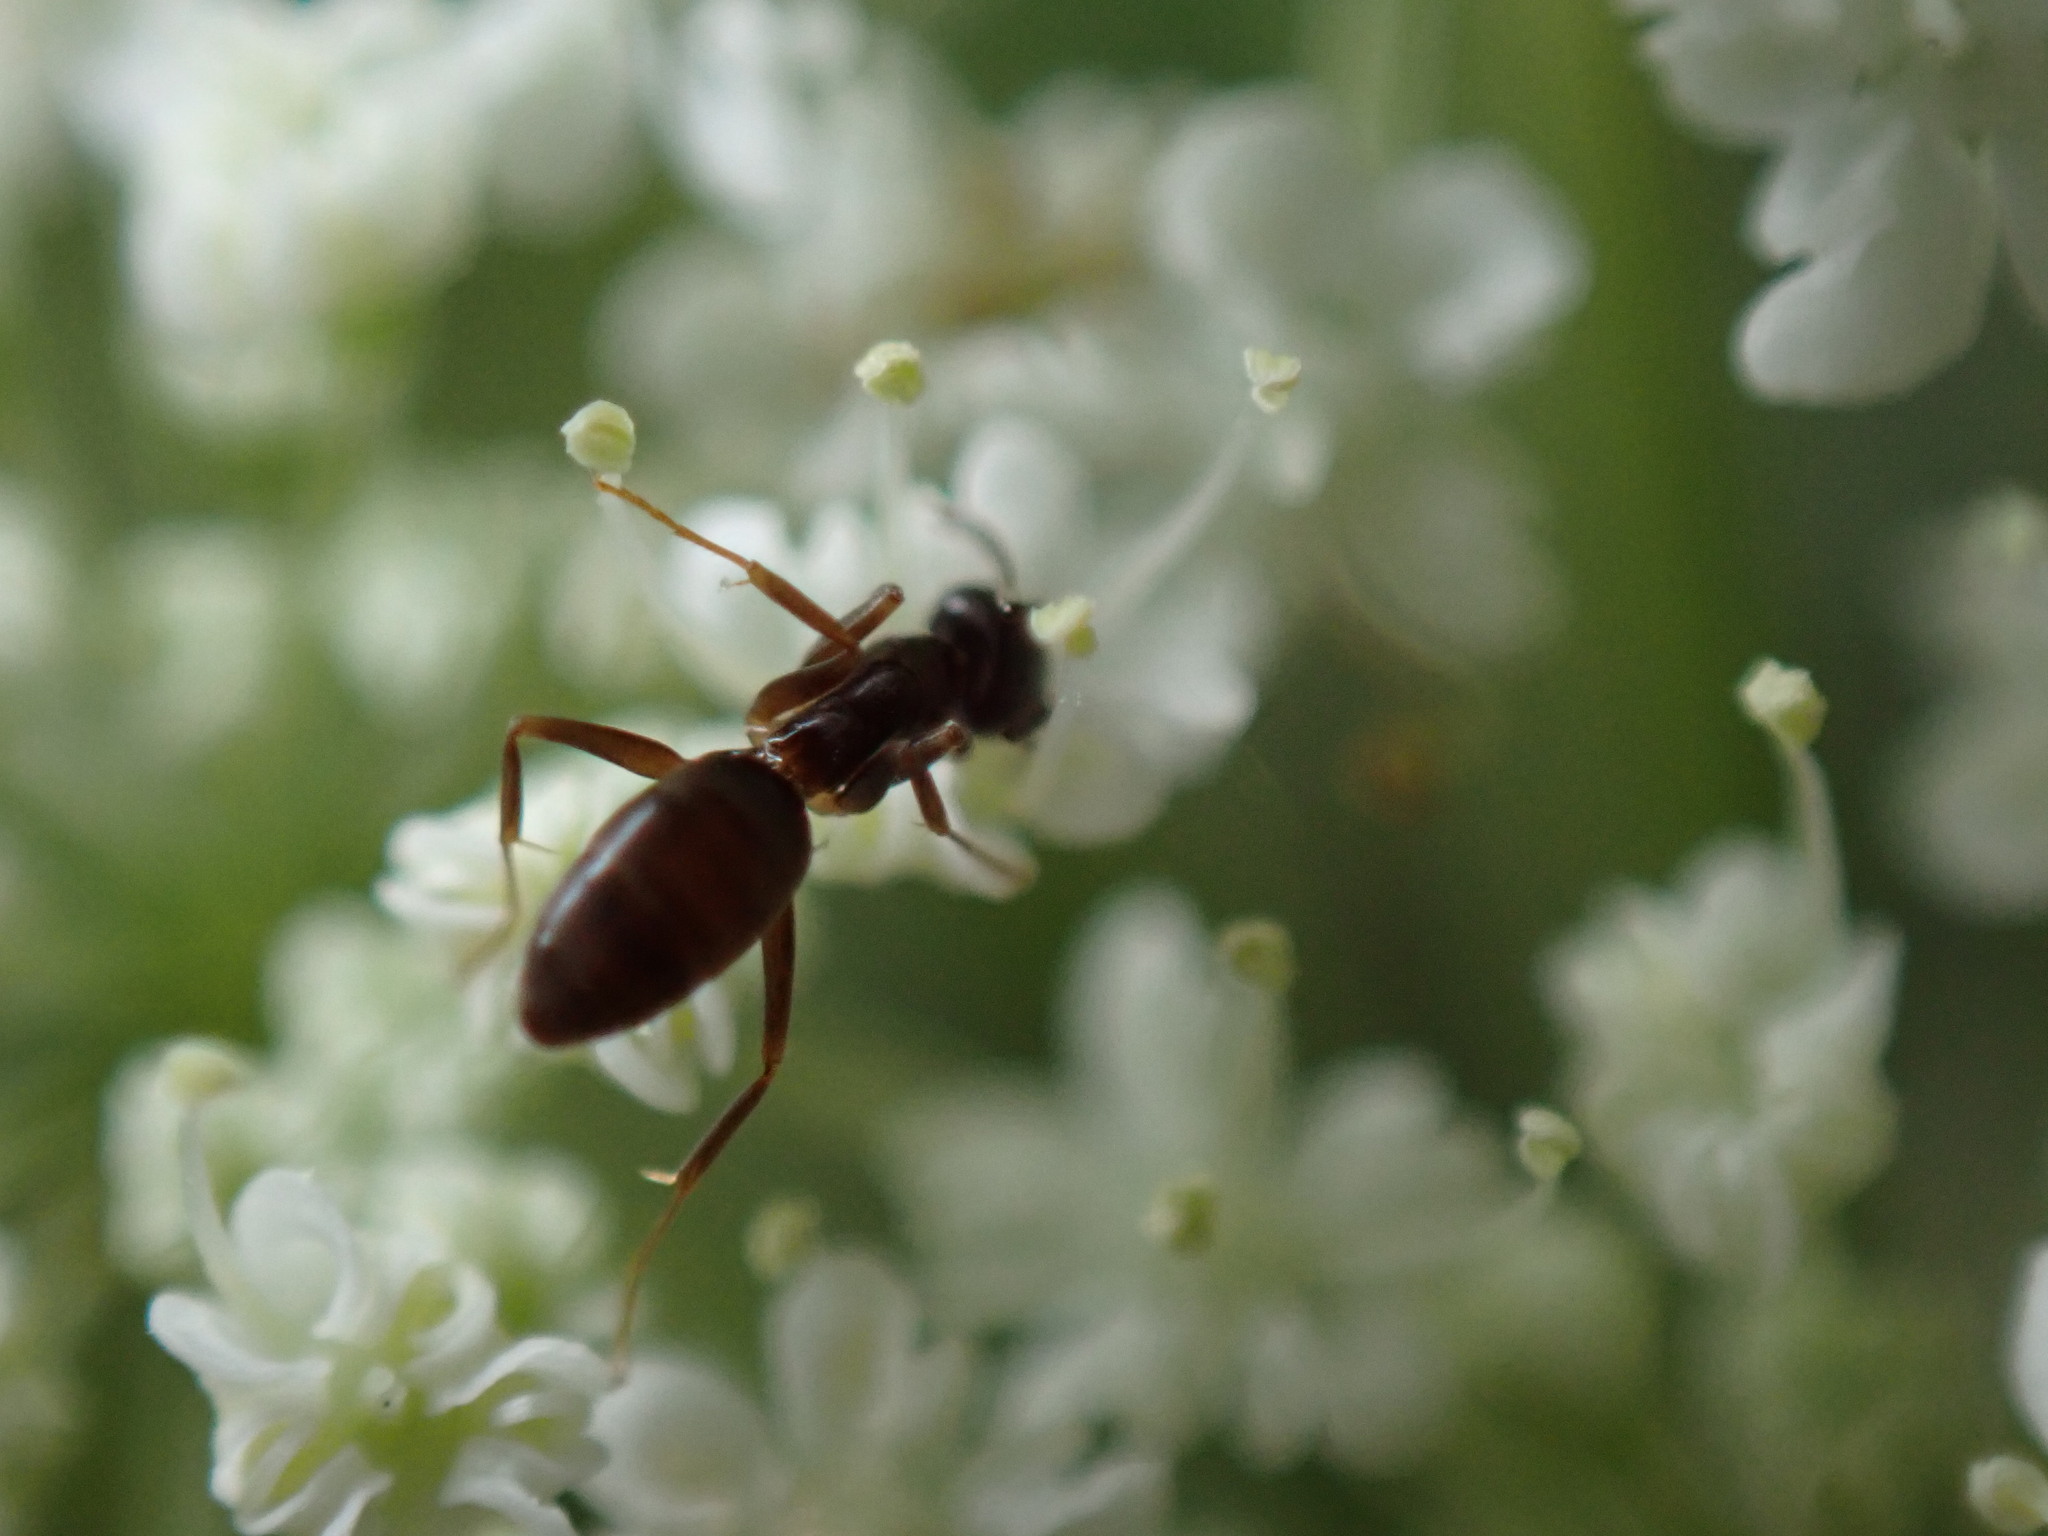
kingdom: Animalia
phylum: Arthropoda
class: Insecta
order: Hymenoptera
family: Formicidae
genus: Tapinoma
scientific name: Tapinoma sessile
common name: Odorous house ant
